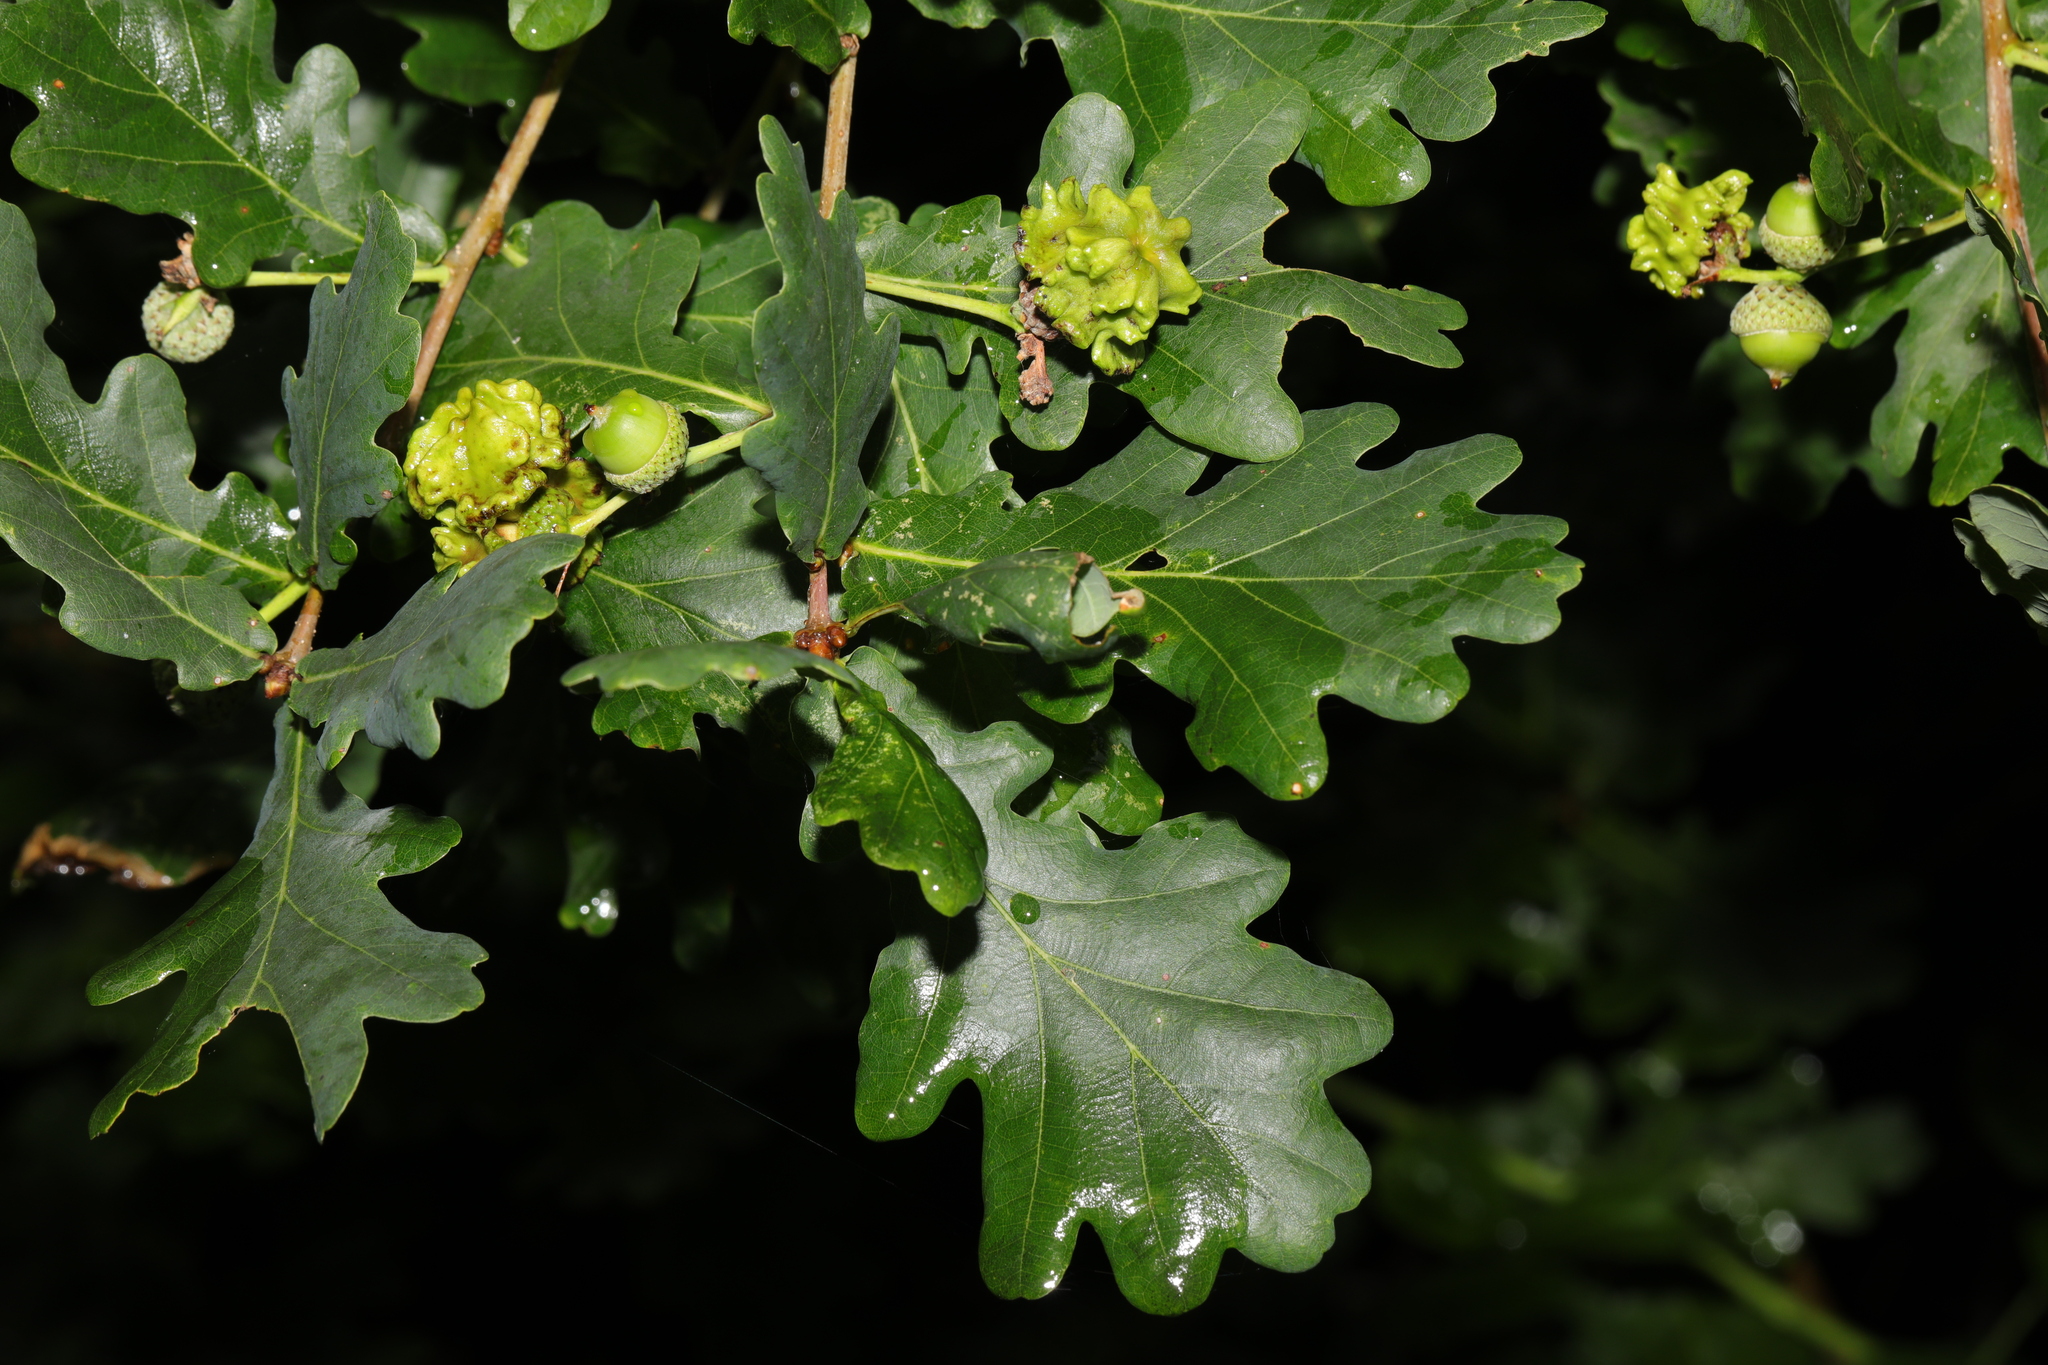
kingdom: Plantae
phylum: Tracheophyta
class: Magnoliopsida
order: Fagales
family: Fagaceae
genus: Quercus
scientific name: Quercus robur
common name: Pedunculate oak
